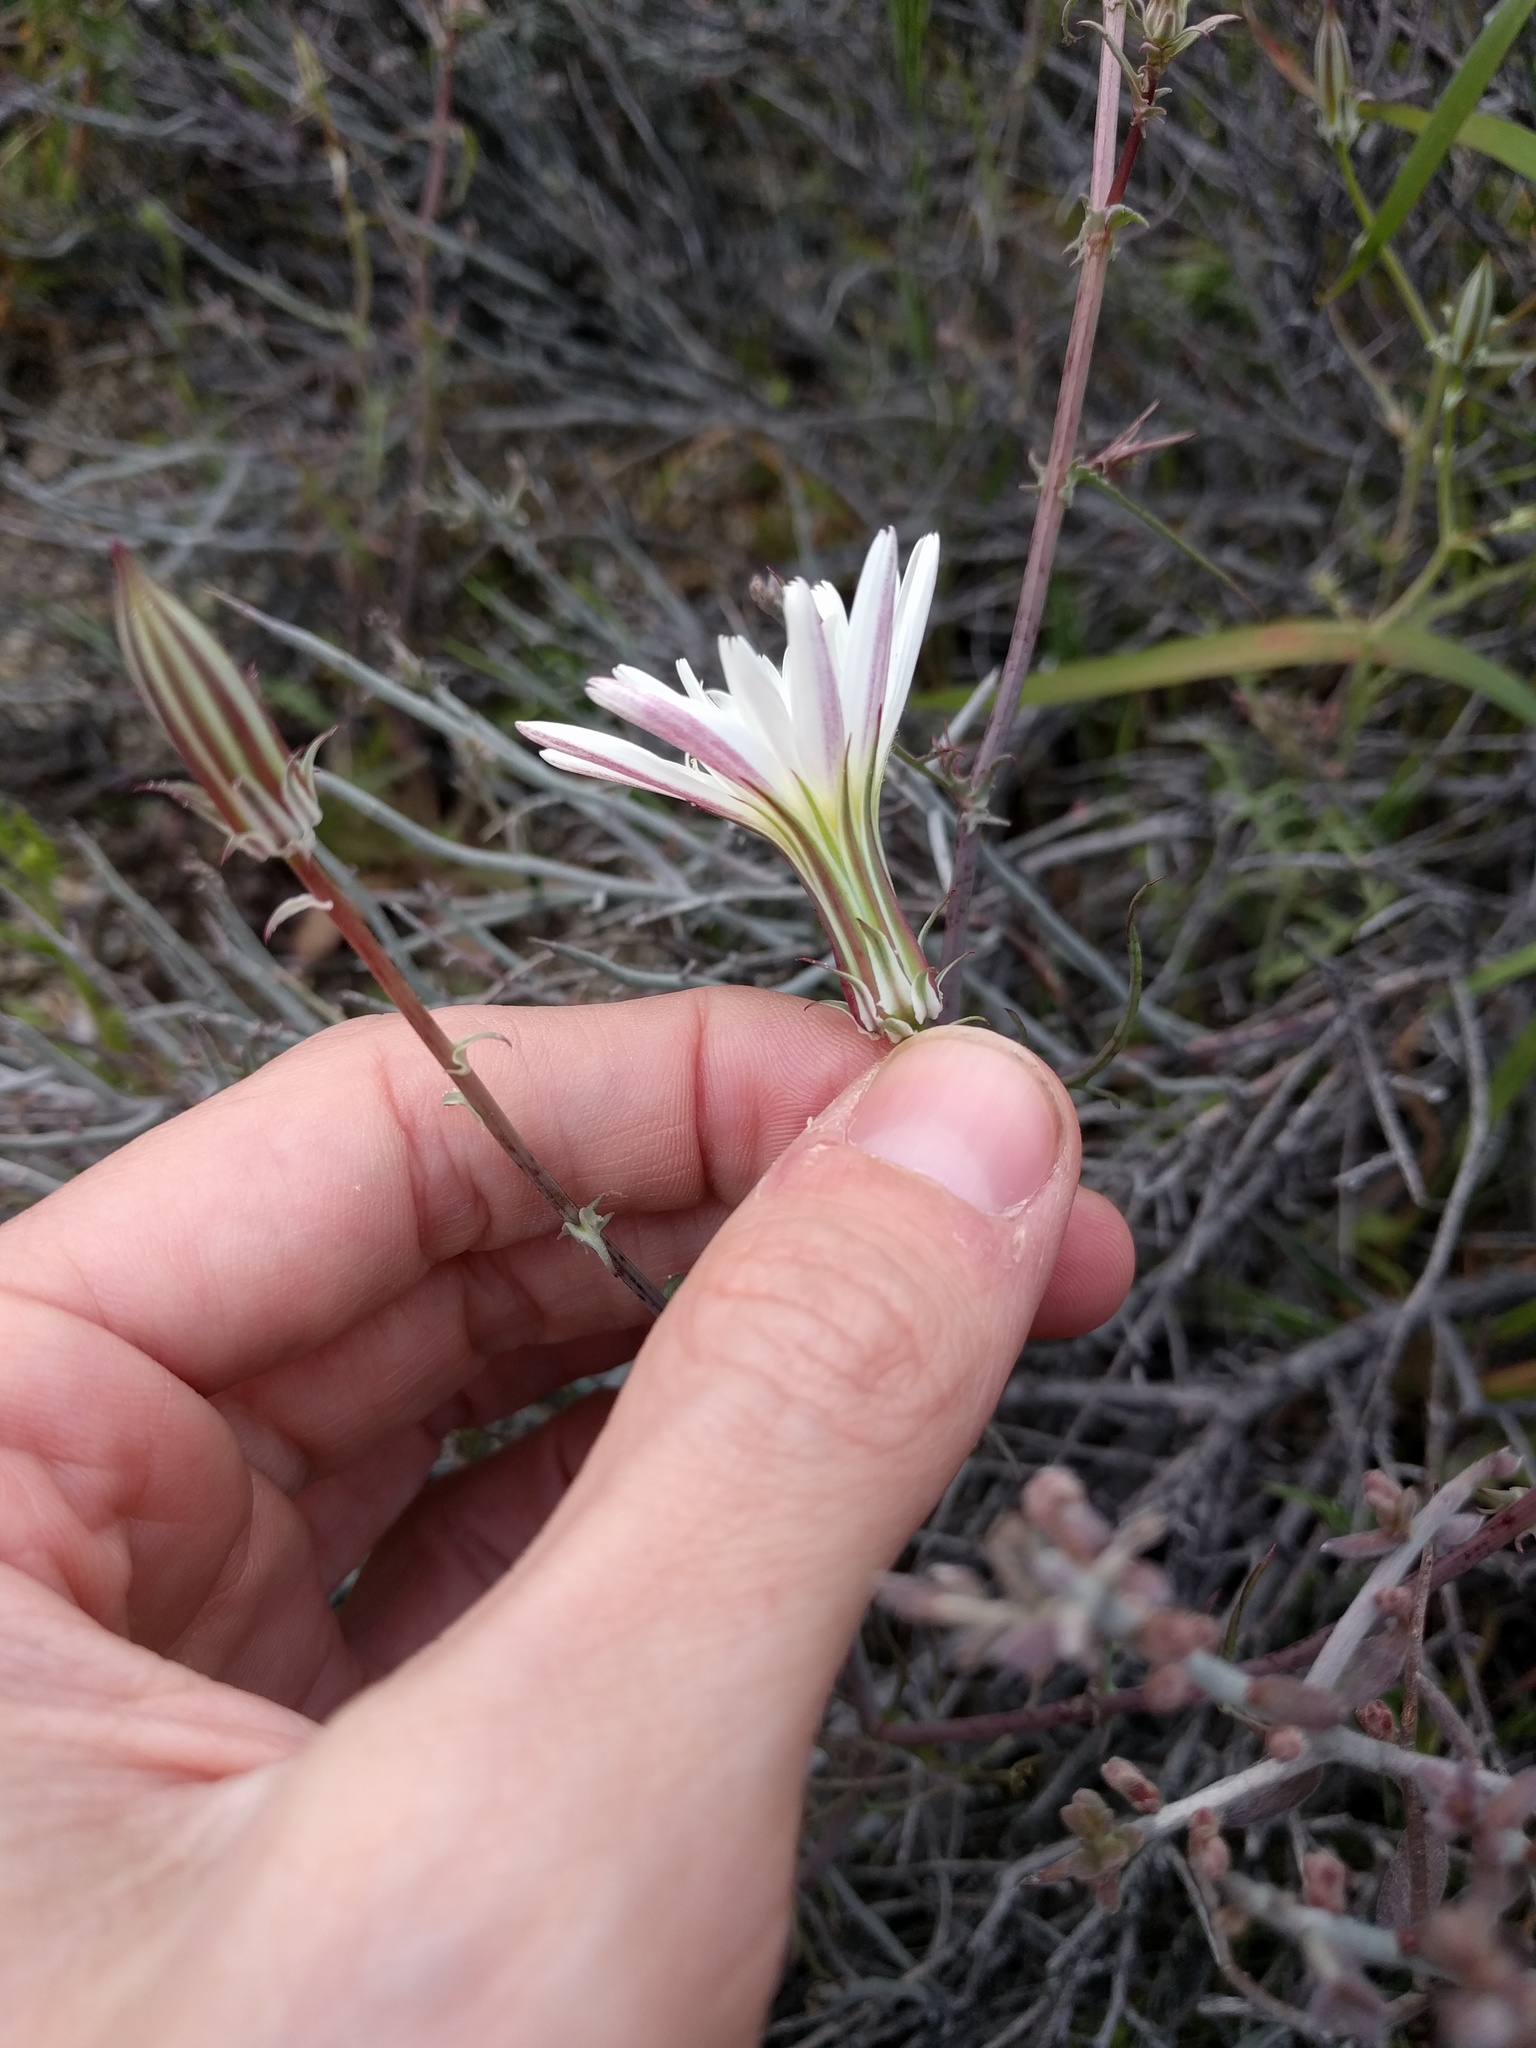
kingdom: Plantae
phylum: Tracheophyta
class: Magnoliopsida
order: Asterales
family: Asteraceae
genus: Rafinesquia
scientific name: Rafinesquia neomexicana
